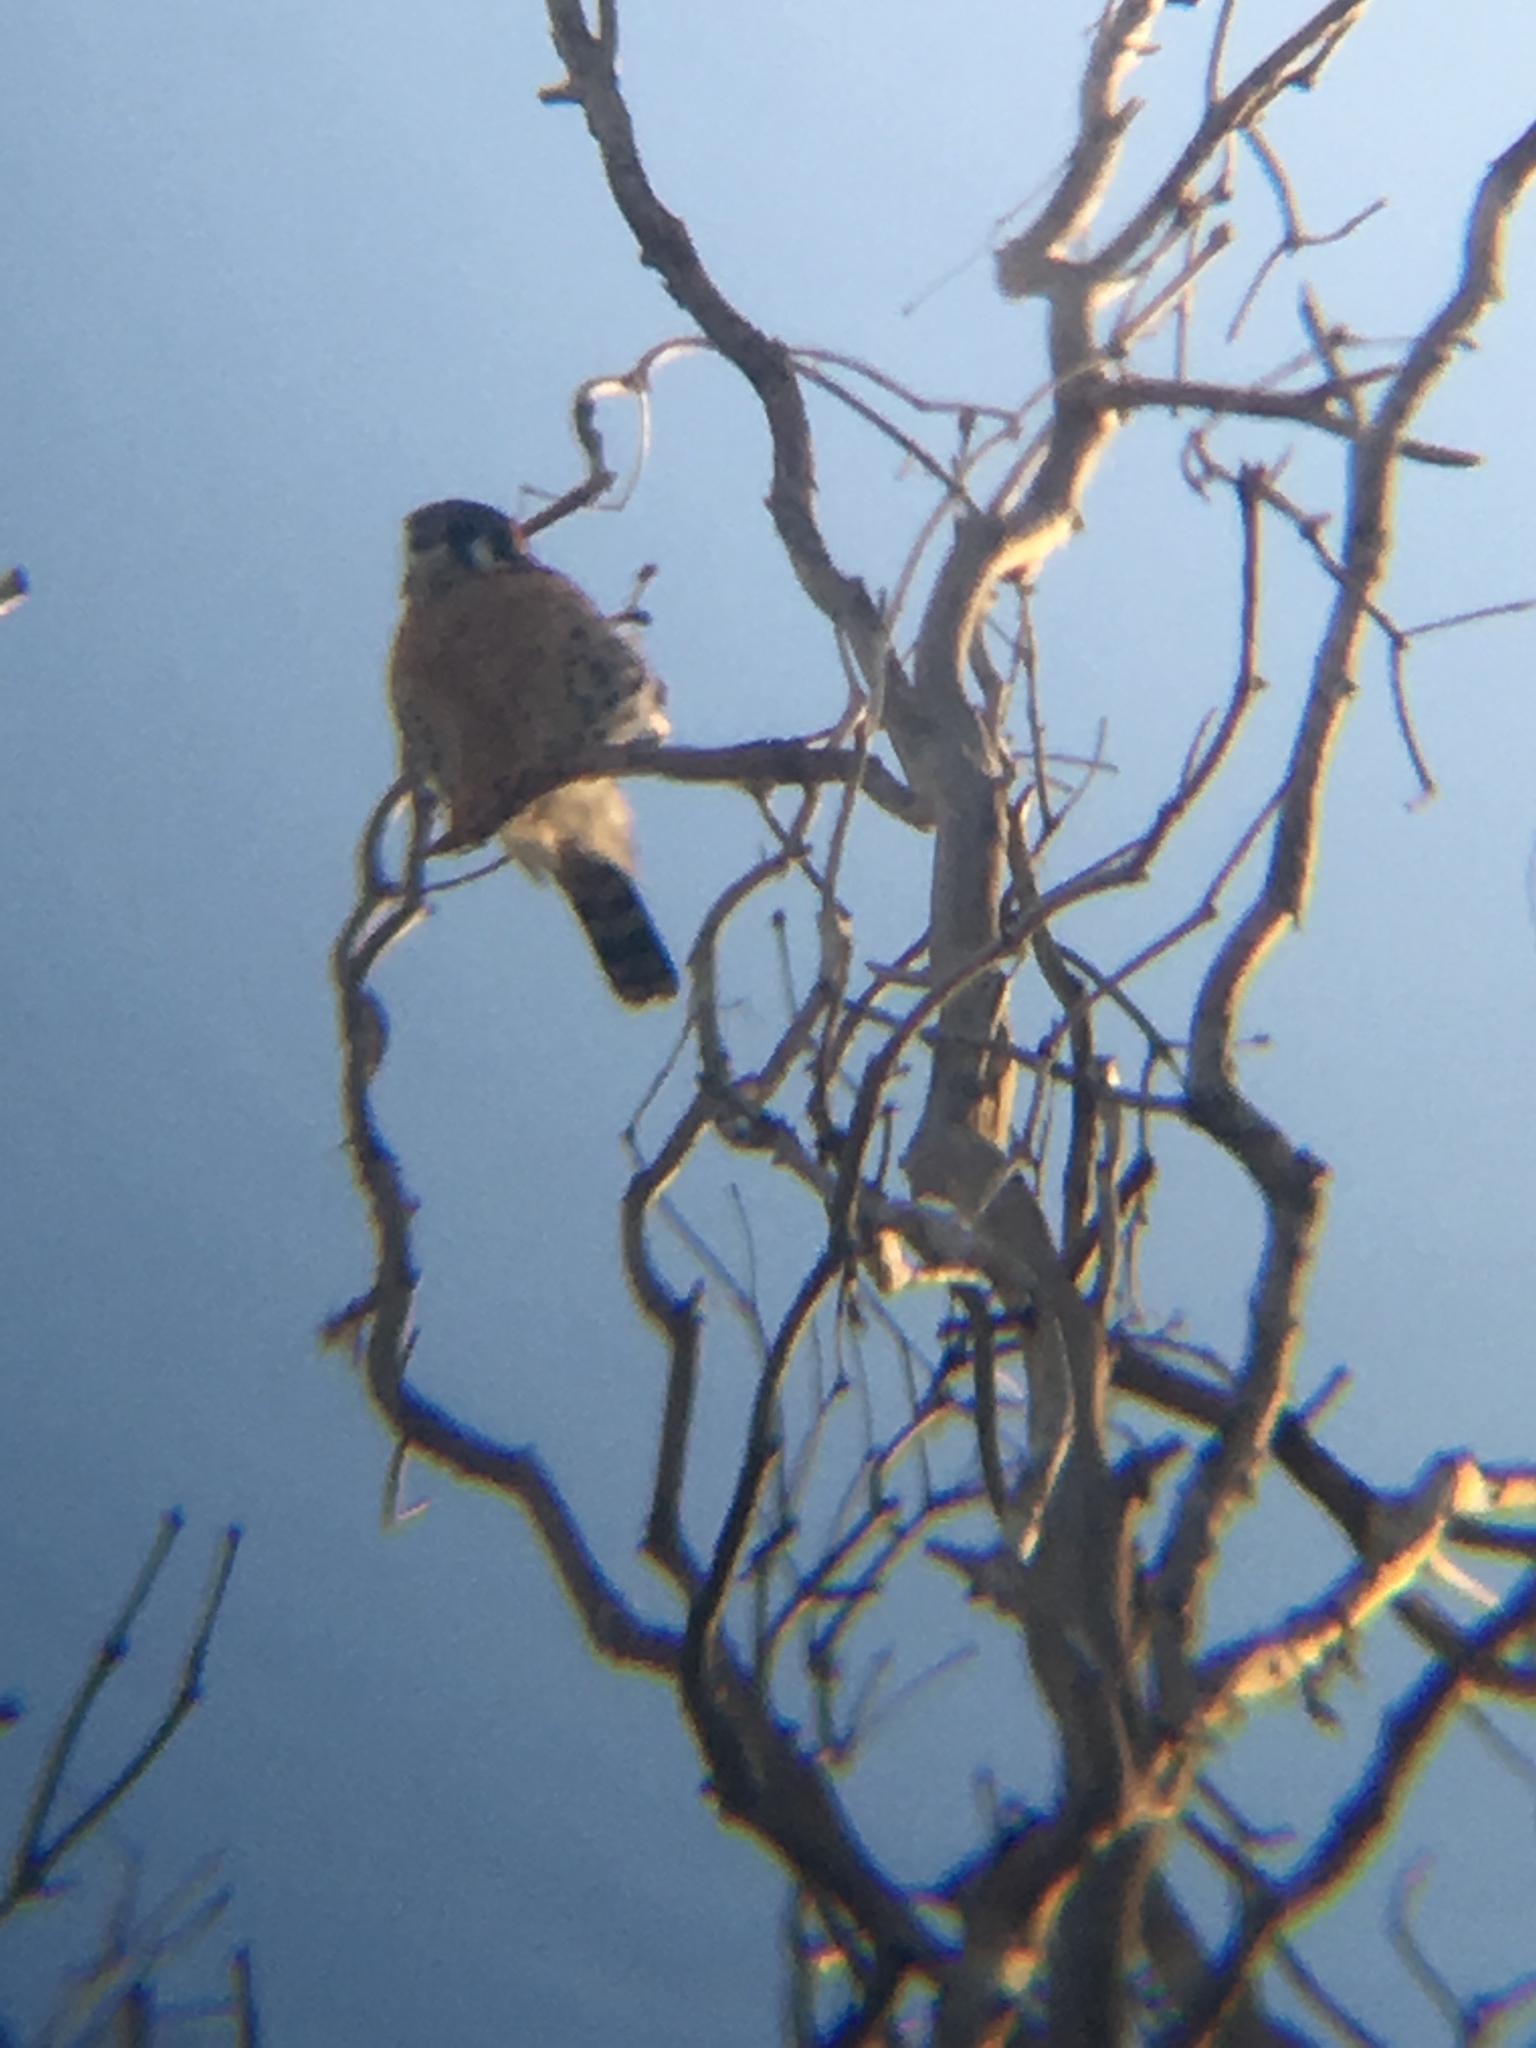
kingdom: Animalia
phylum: Chordata
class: Aves
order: Falconiformes
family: Falconidae
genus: Falco
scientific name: Falco sparverius
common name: American kestrel
